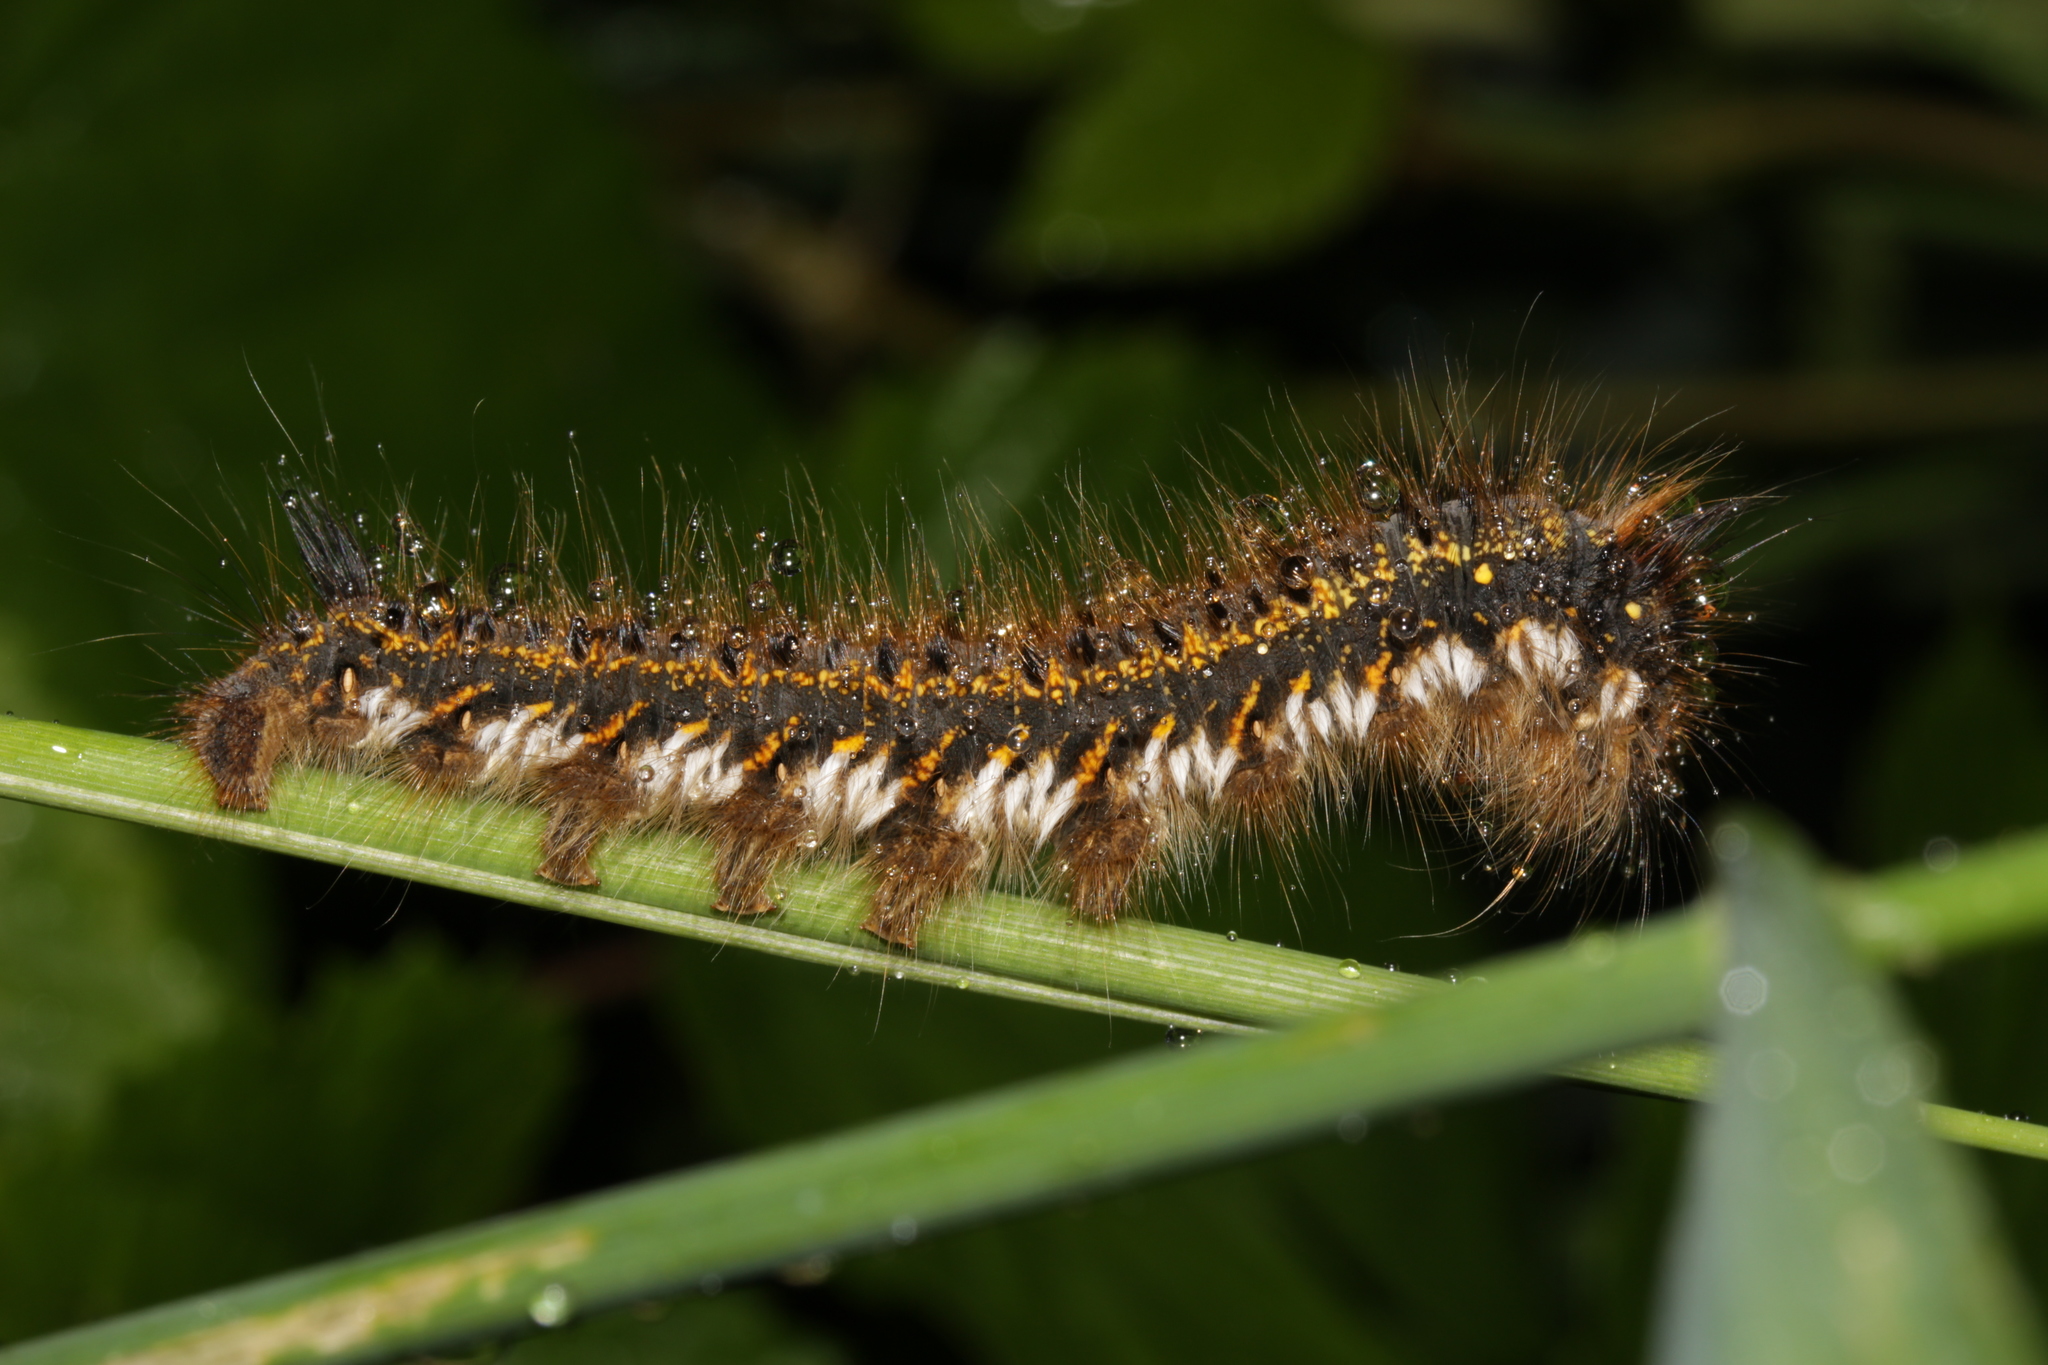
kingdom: Animalia
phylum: Arthropoda
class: Insecta
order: Lepidoptera
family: Lasiocampidae
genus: Euthrix
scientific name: Euthrix potatoria
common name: Drinker
